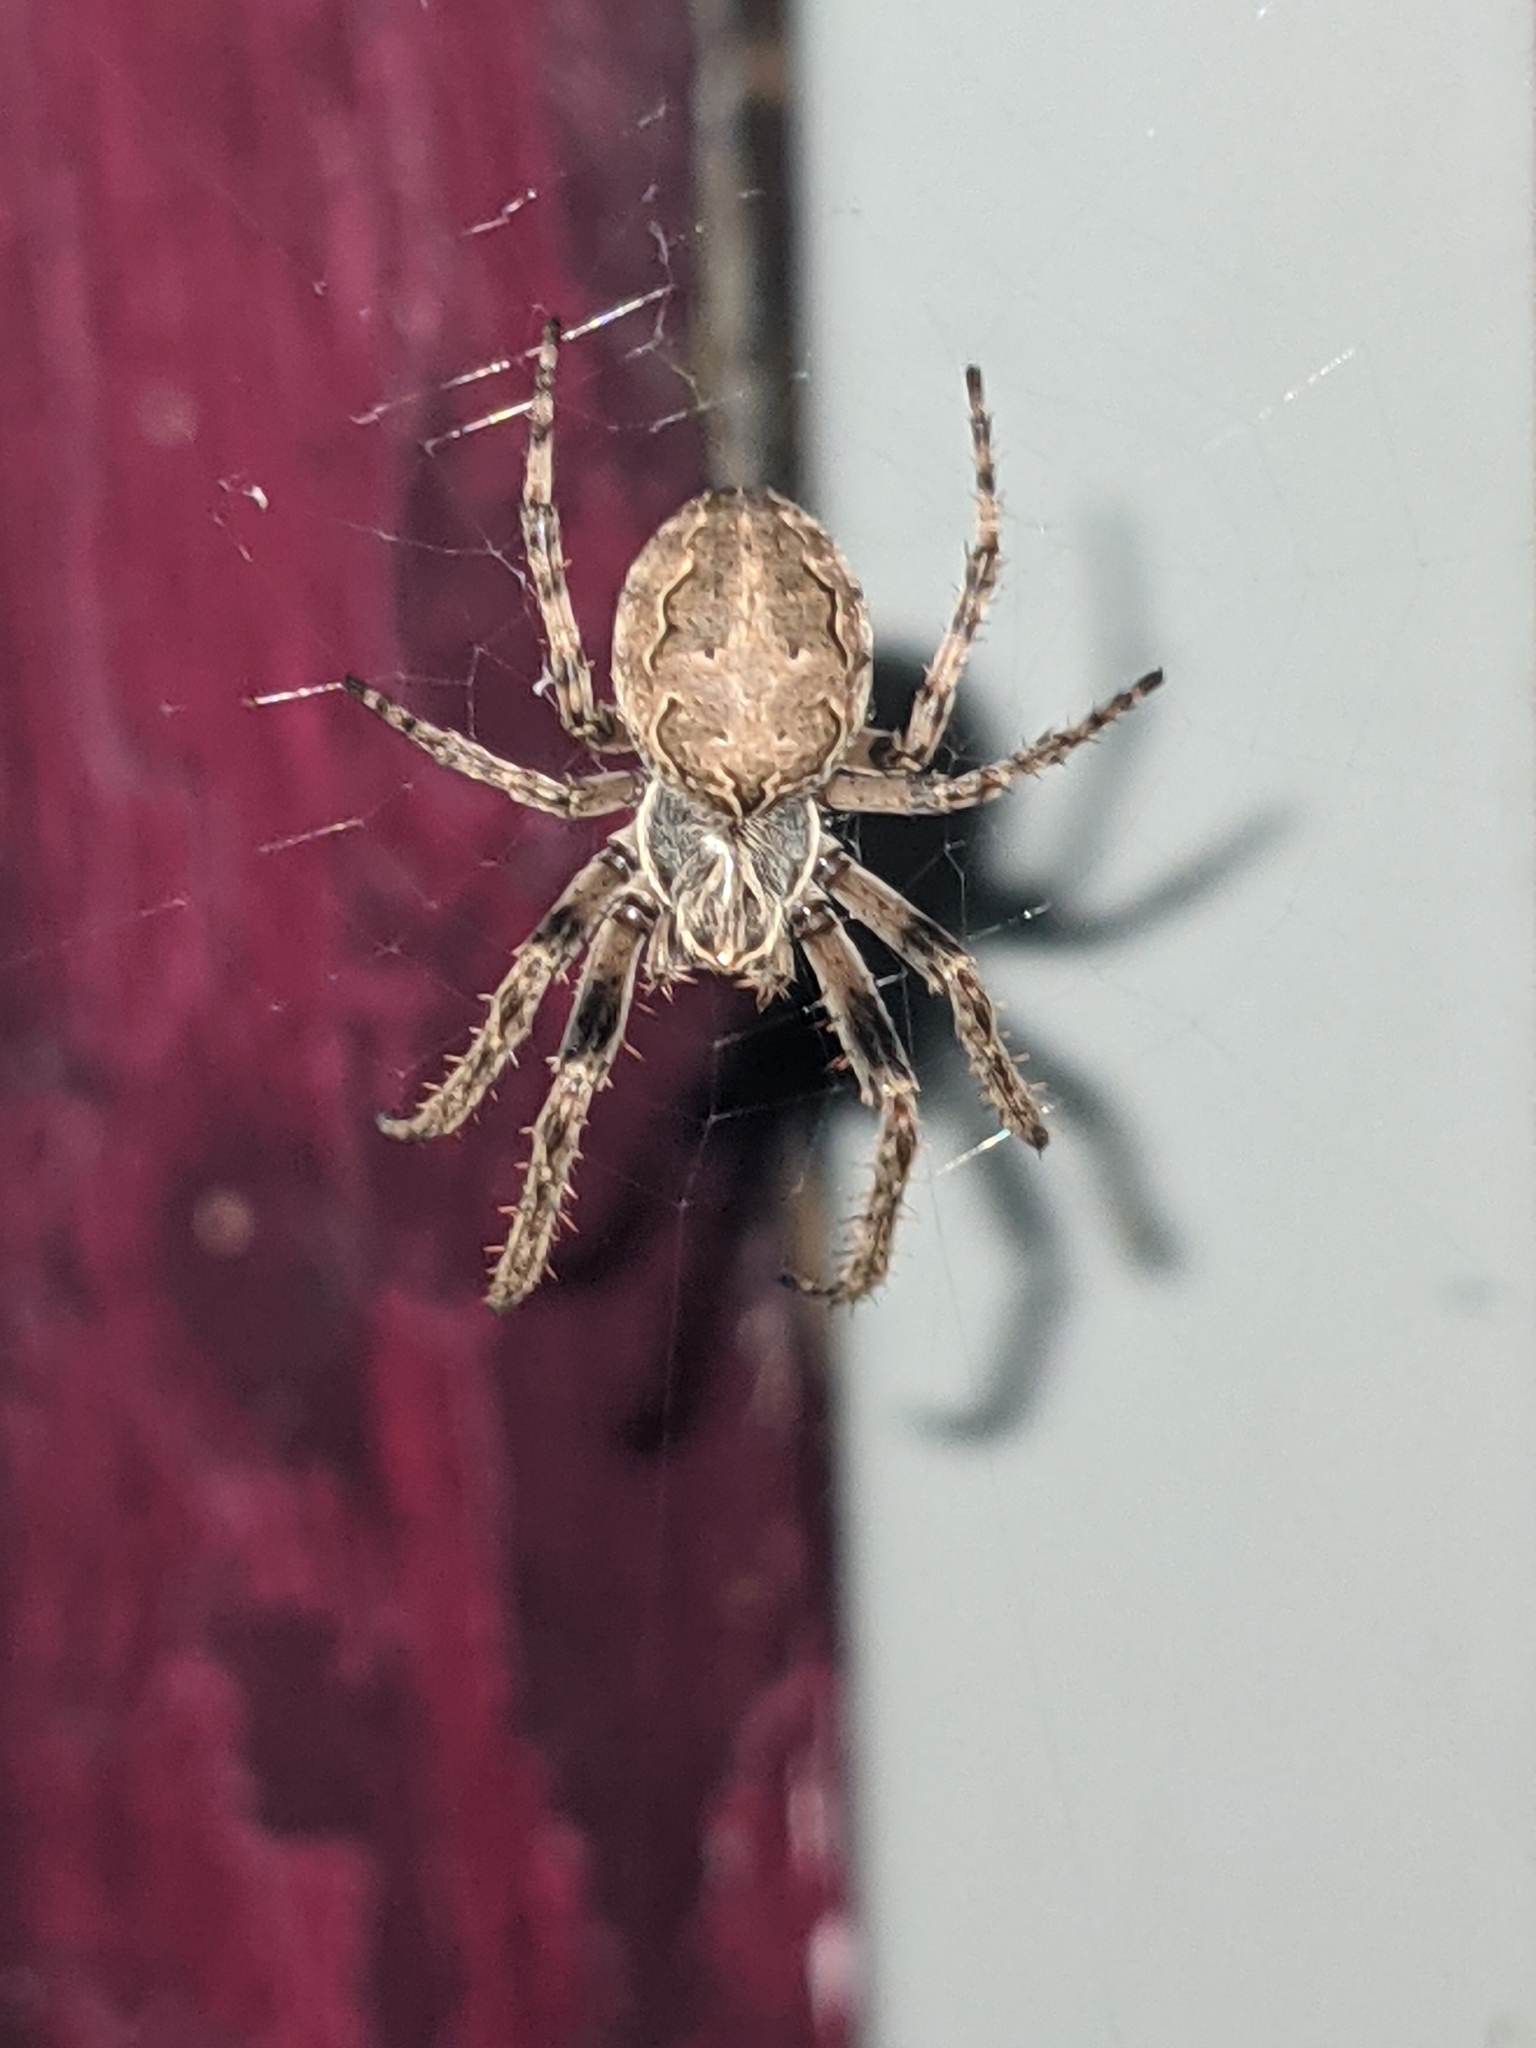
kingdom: Animalia
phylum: Arthropoda
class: Arachnida
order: Araneae
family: Araneidae
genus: Larinioides
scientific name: Larinioides sclopetarius
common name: Bridge orbweaver
